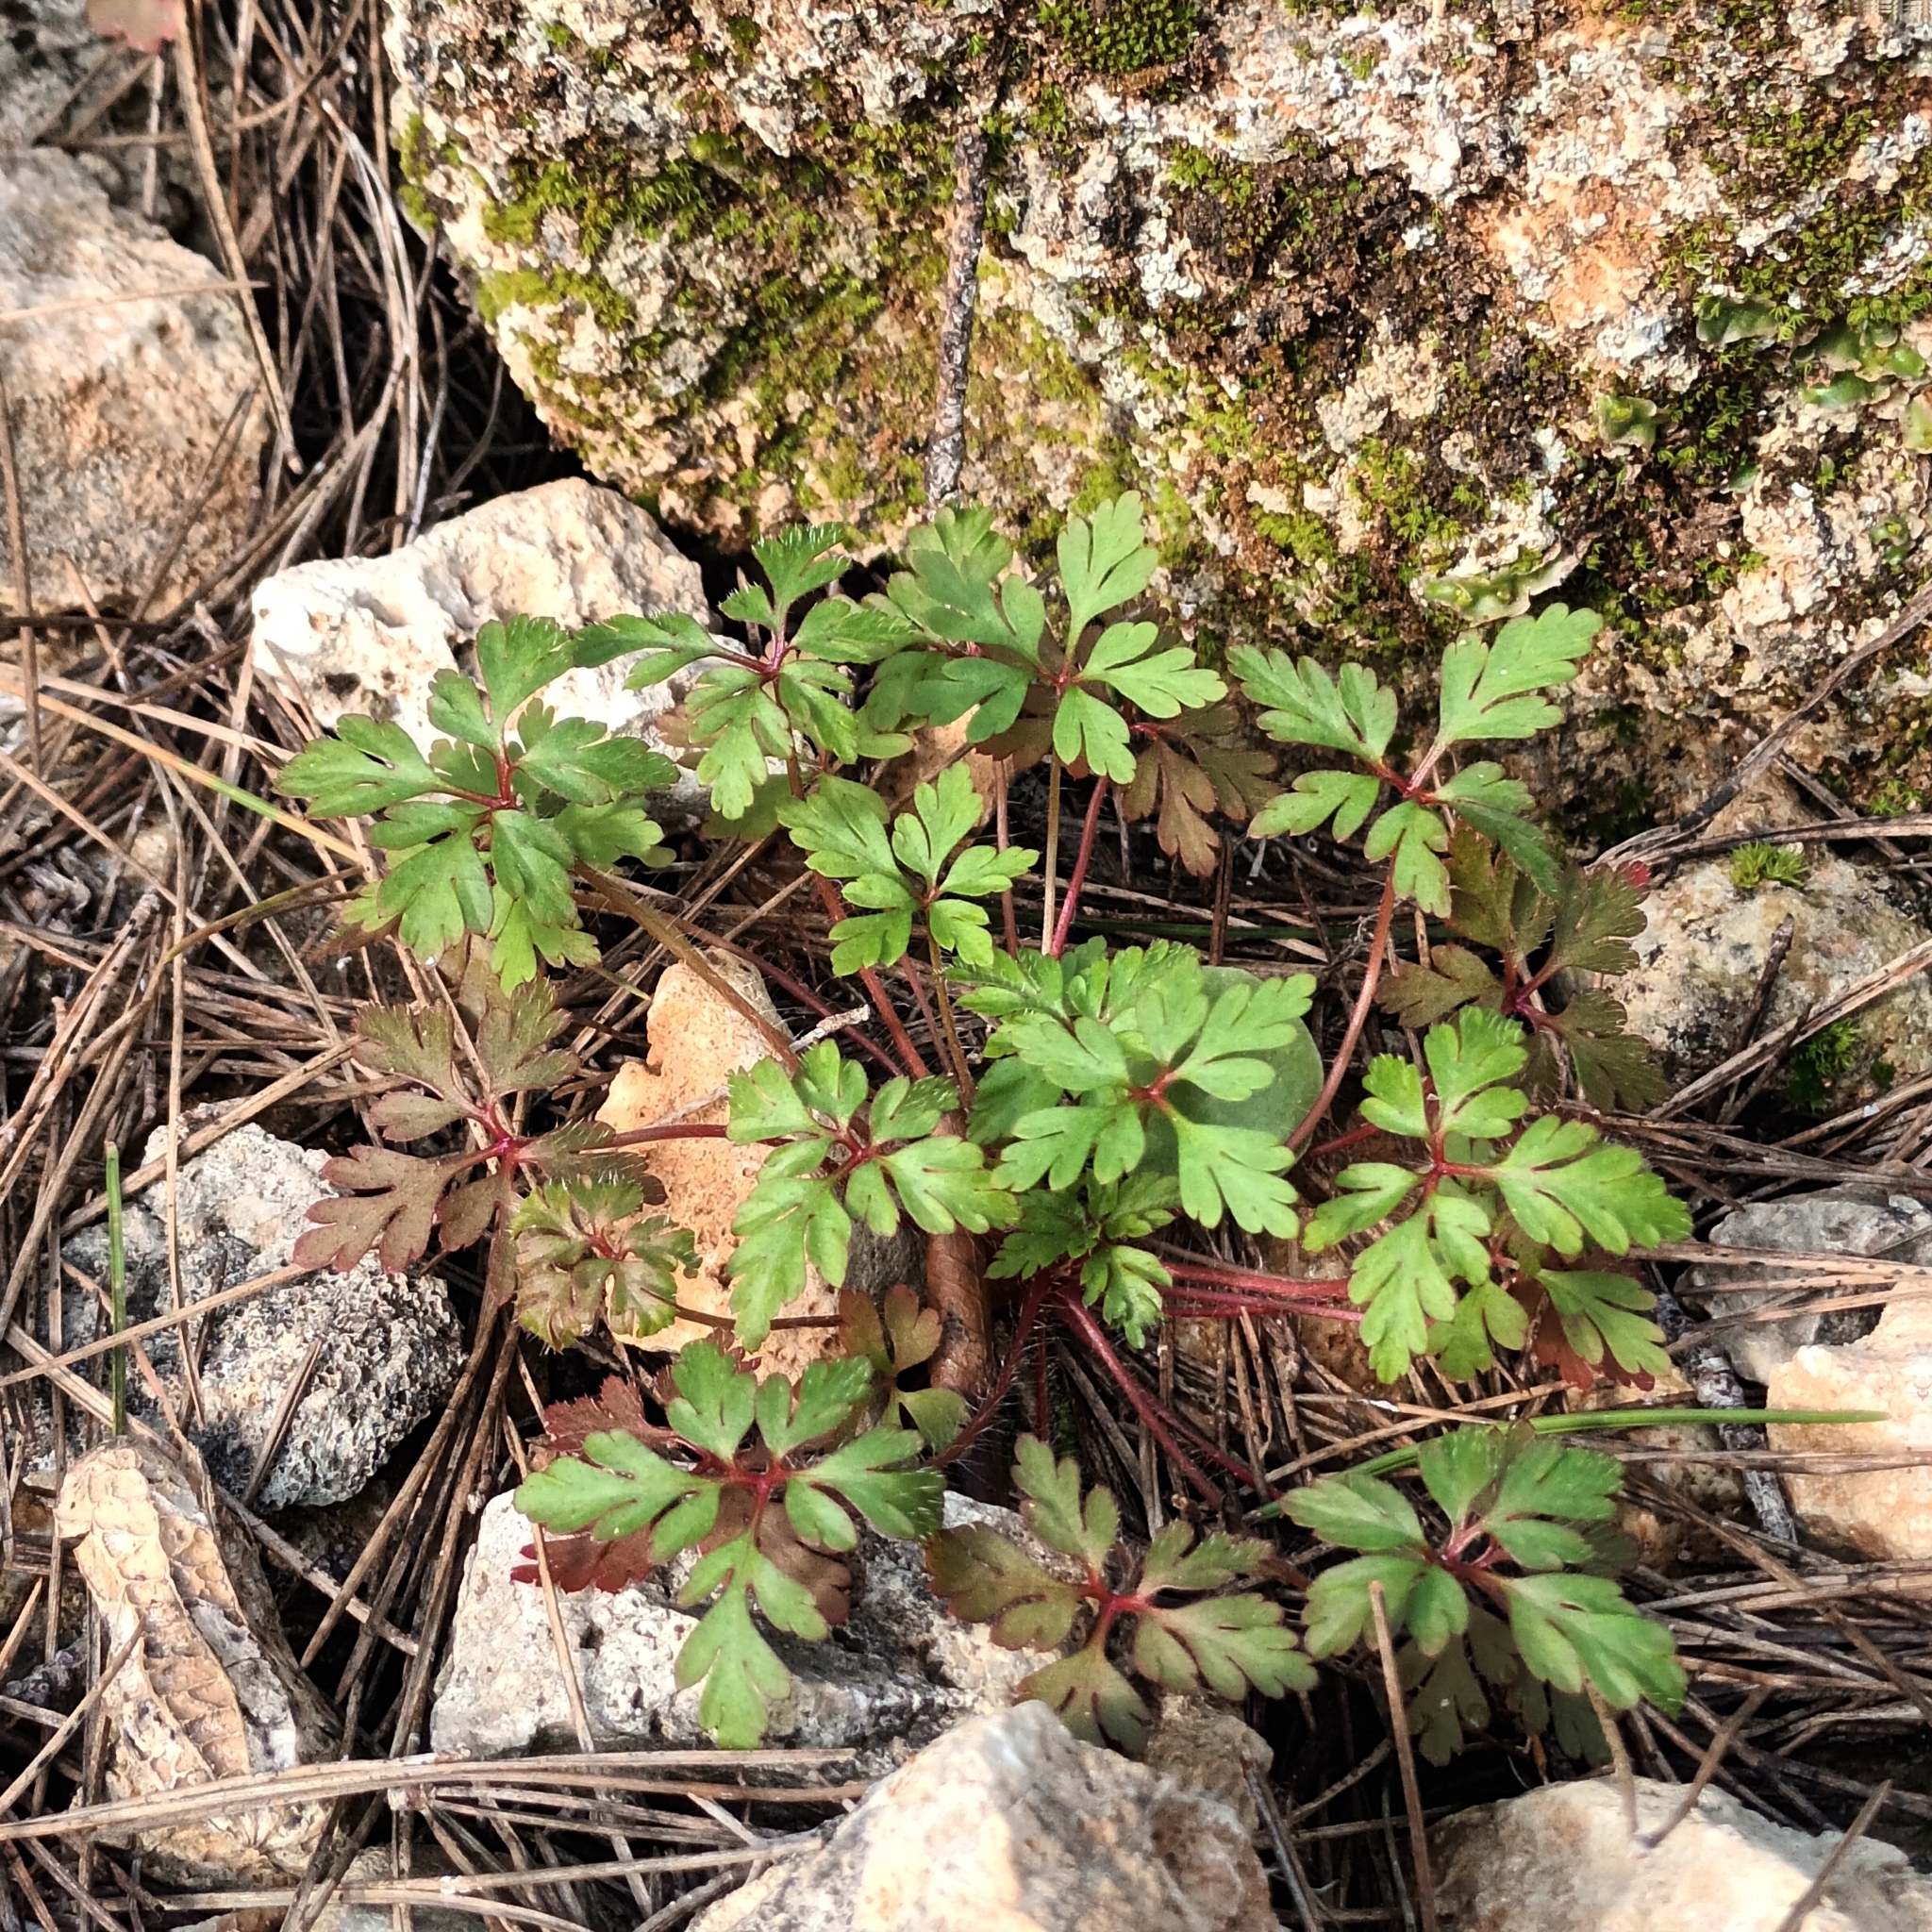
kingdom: Plantae
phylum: Tracheophyta
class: Magnoliopsida
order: Geraniales
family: Geraniaceae
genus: Geranium
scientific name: Geranium purpureum
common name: Little-robin
